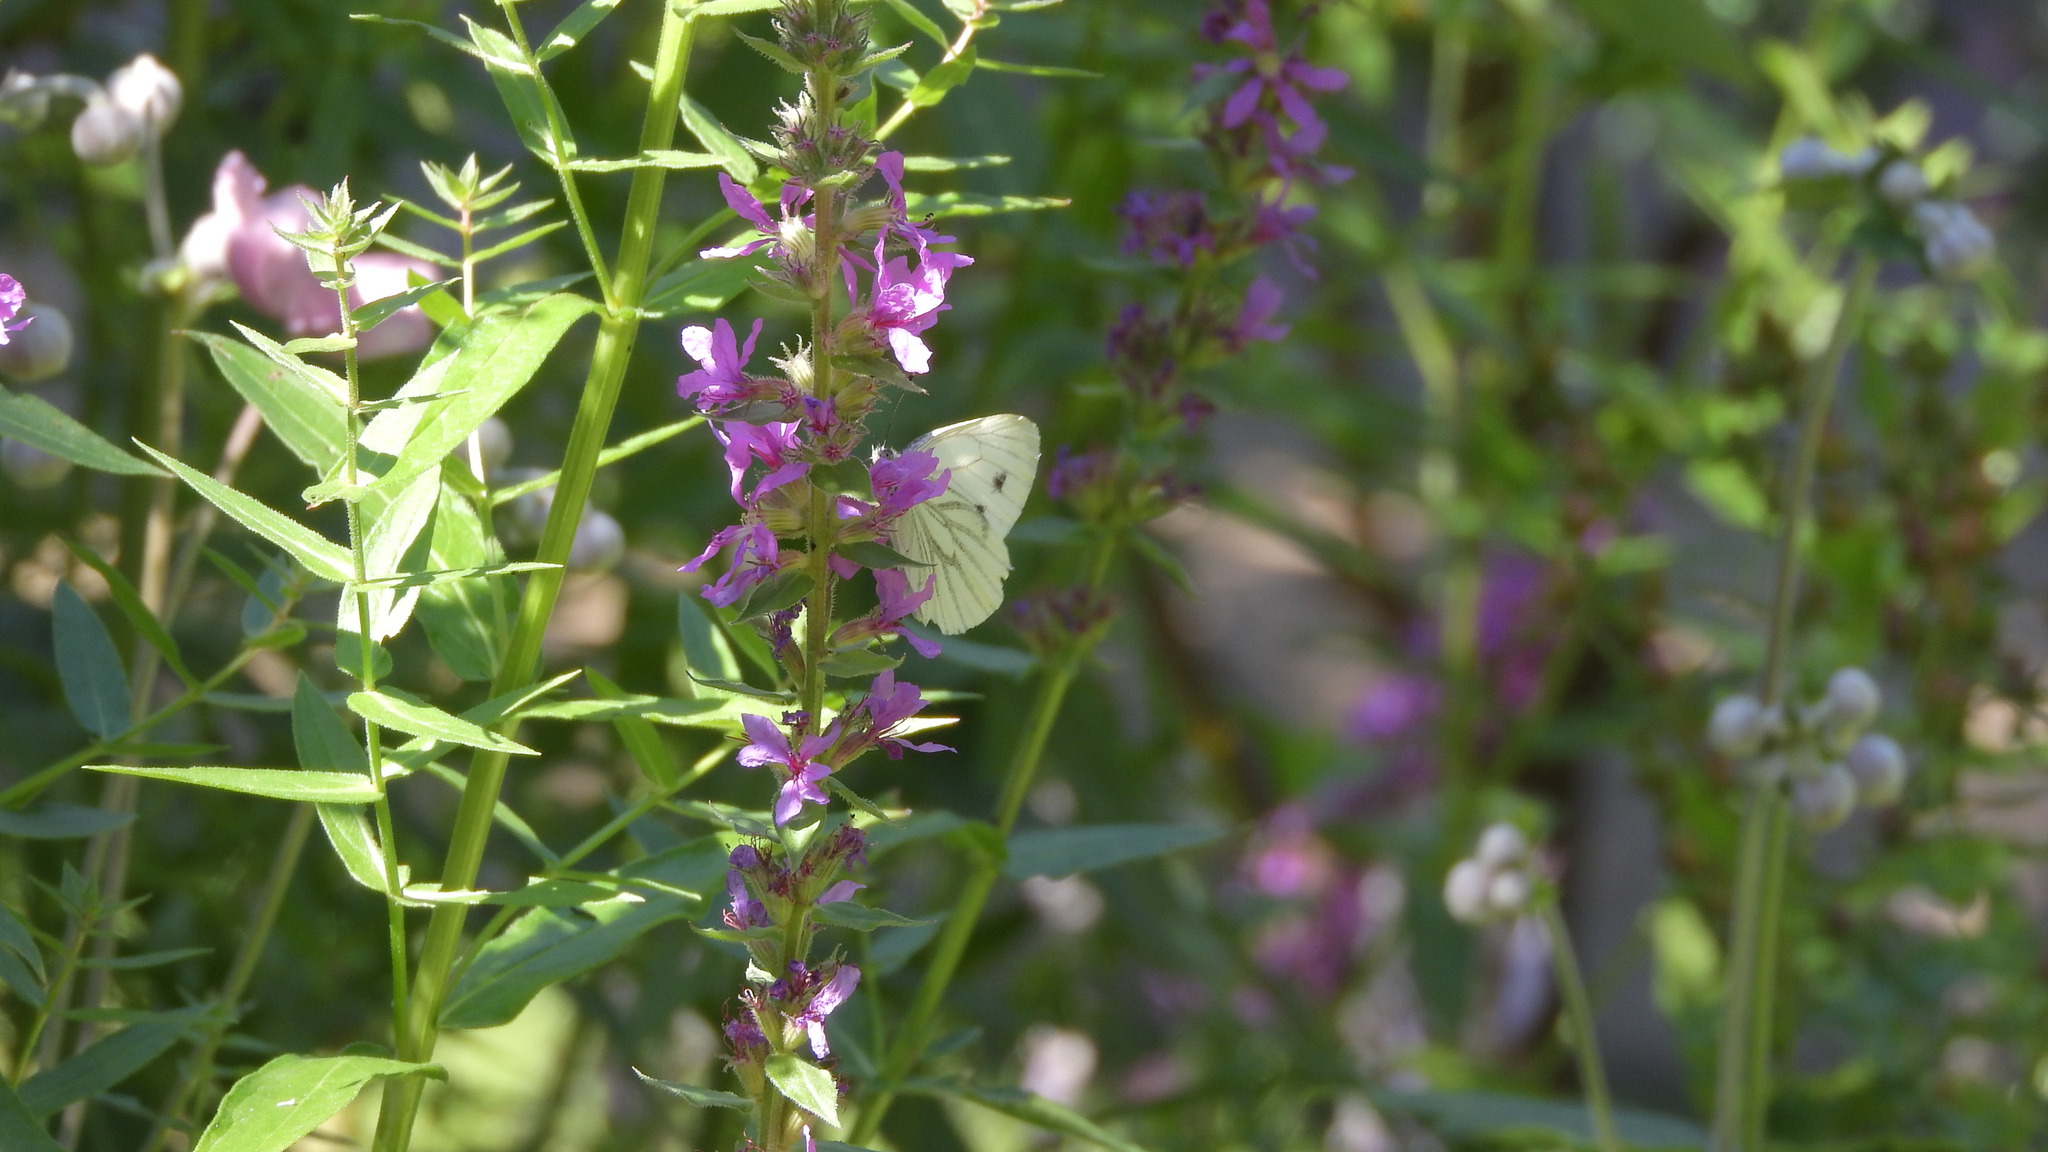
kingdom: Animalia
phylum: Arthropoda
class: Insecta
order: Lepidoptera
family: Pieridae
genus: Pieris
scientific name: Pieris napi
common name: Green-veined white
